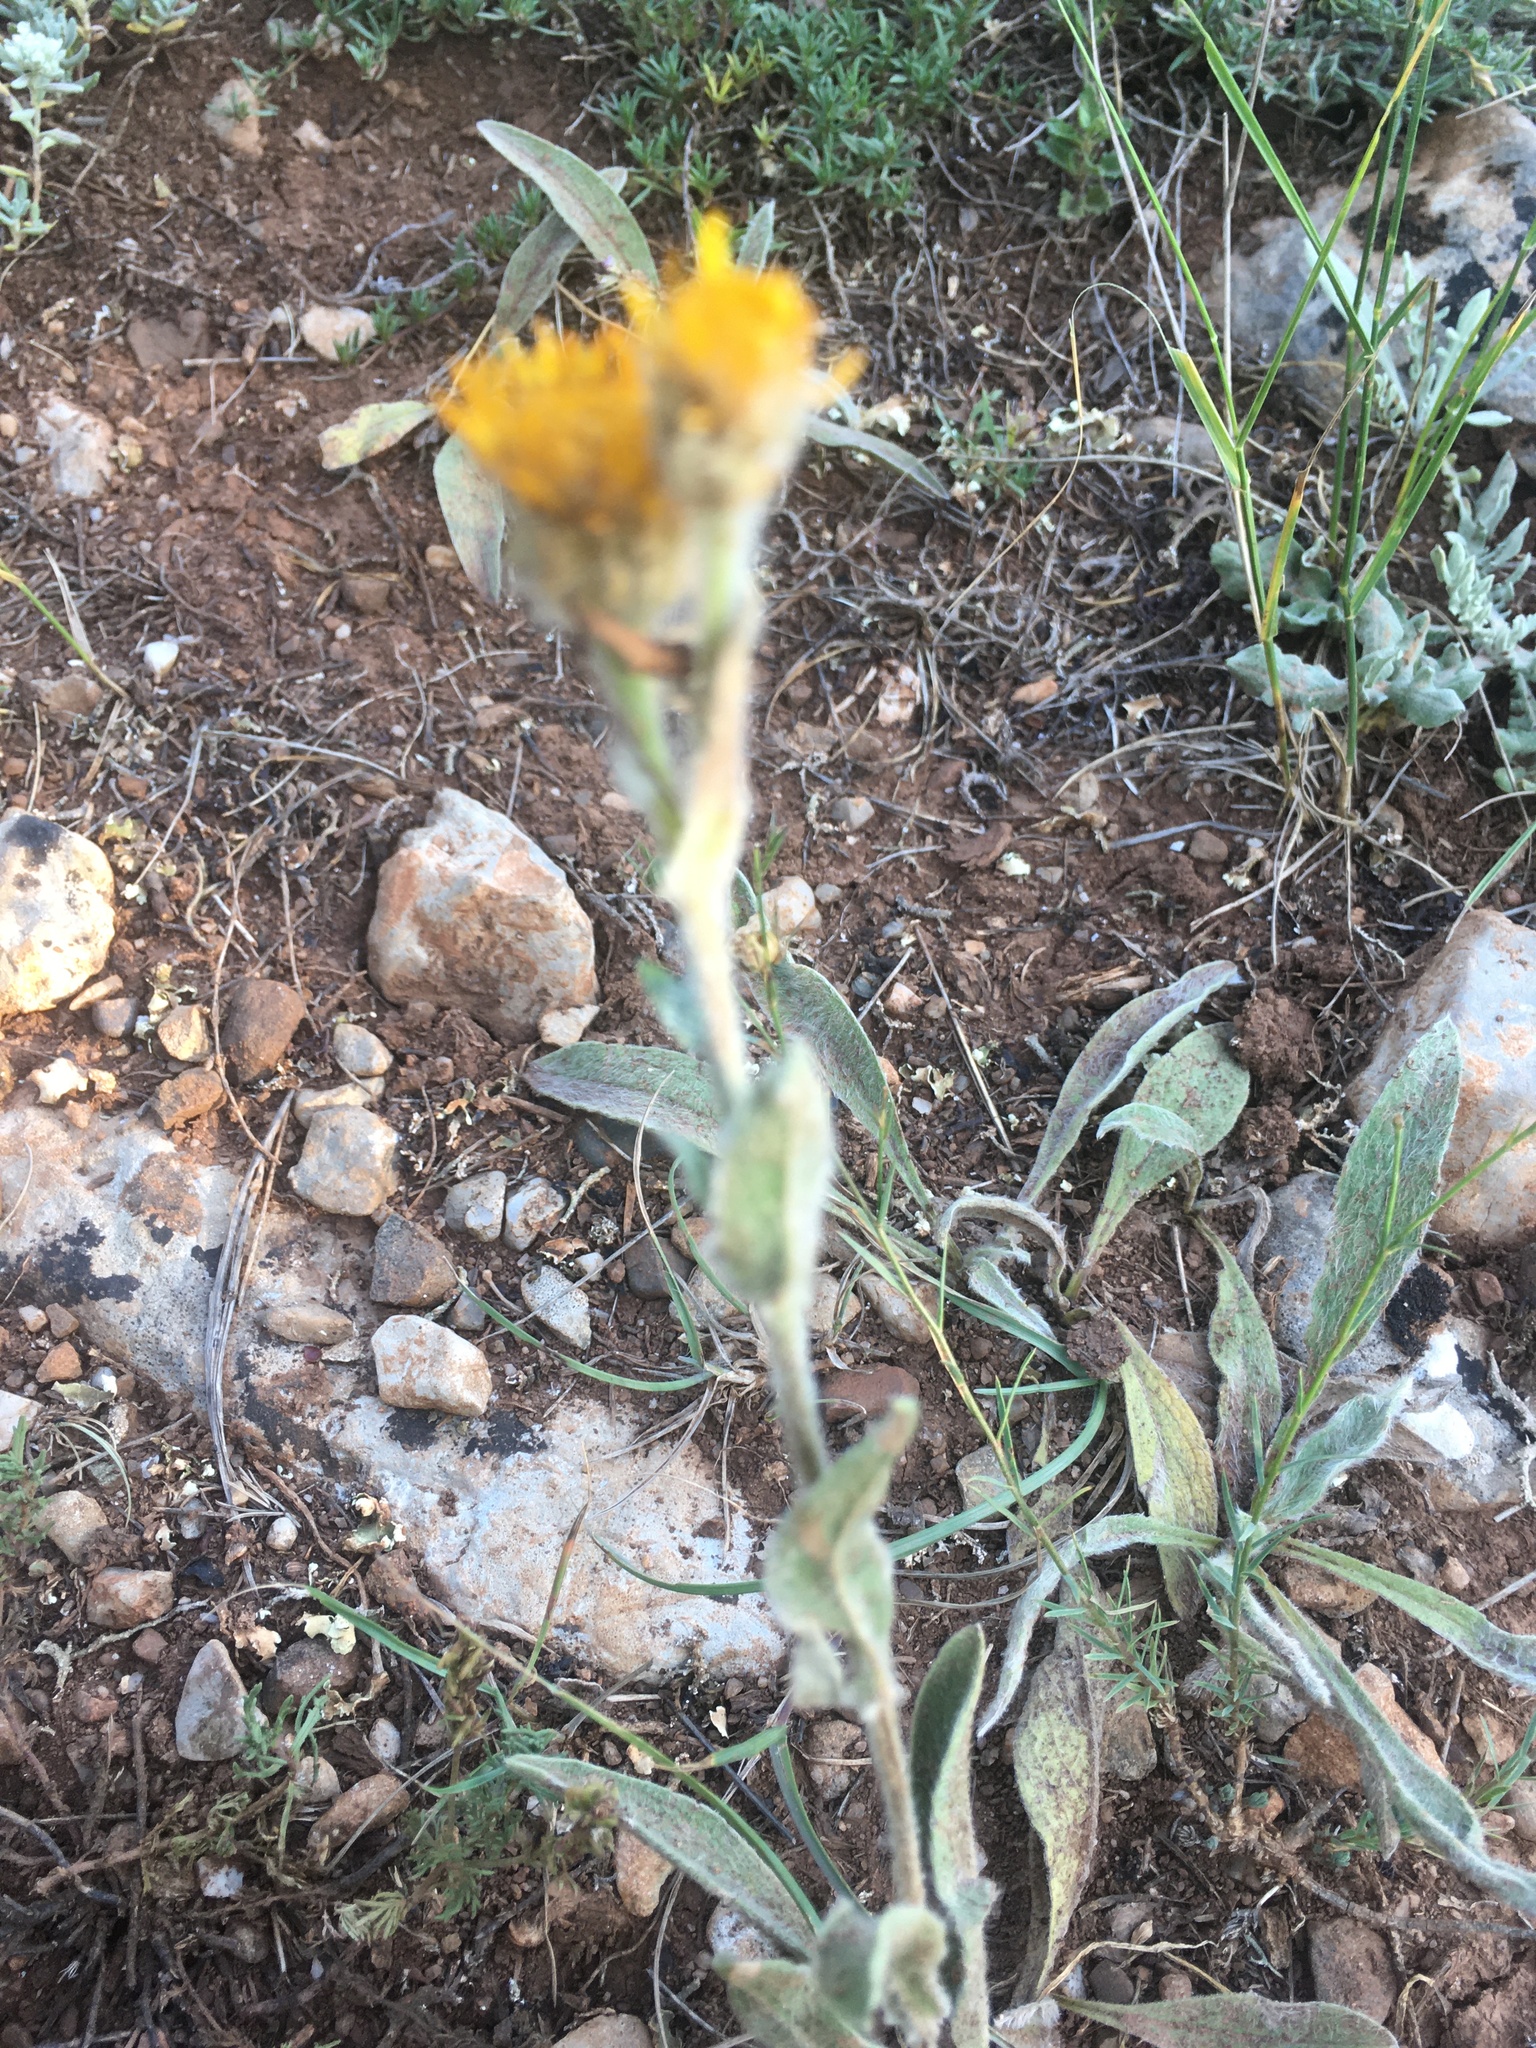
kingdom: Plantae
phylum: Tracheophyta
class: Magnoliopsida
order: Asterales
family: Asteraceae
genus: Pentanema
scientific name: Pentanema oculus-christi
